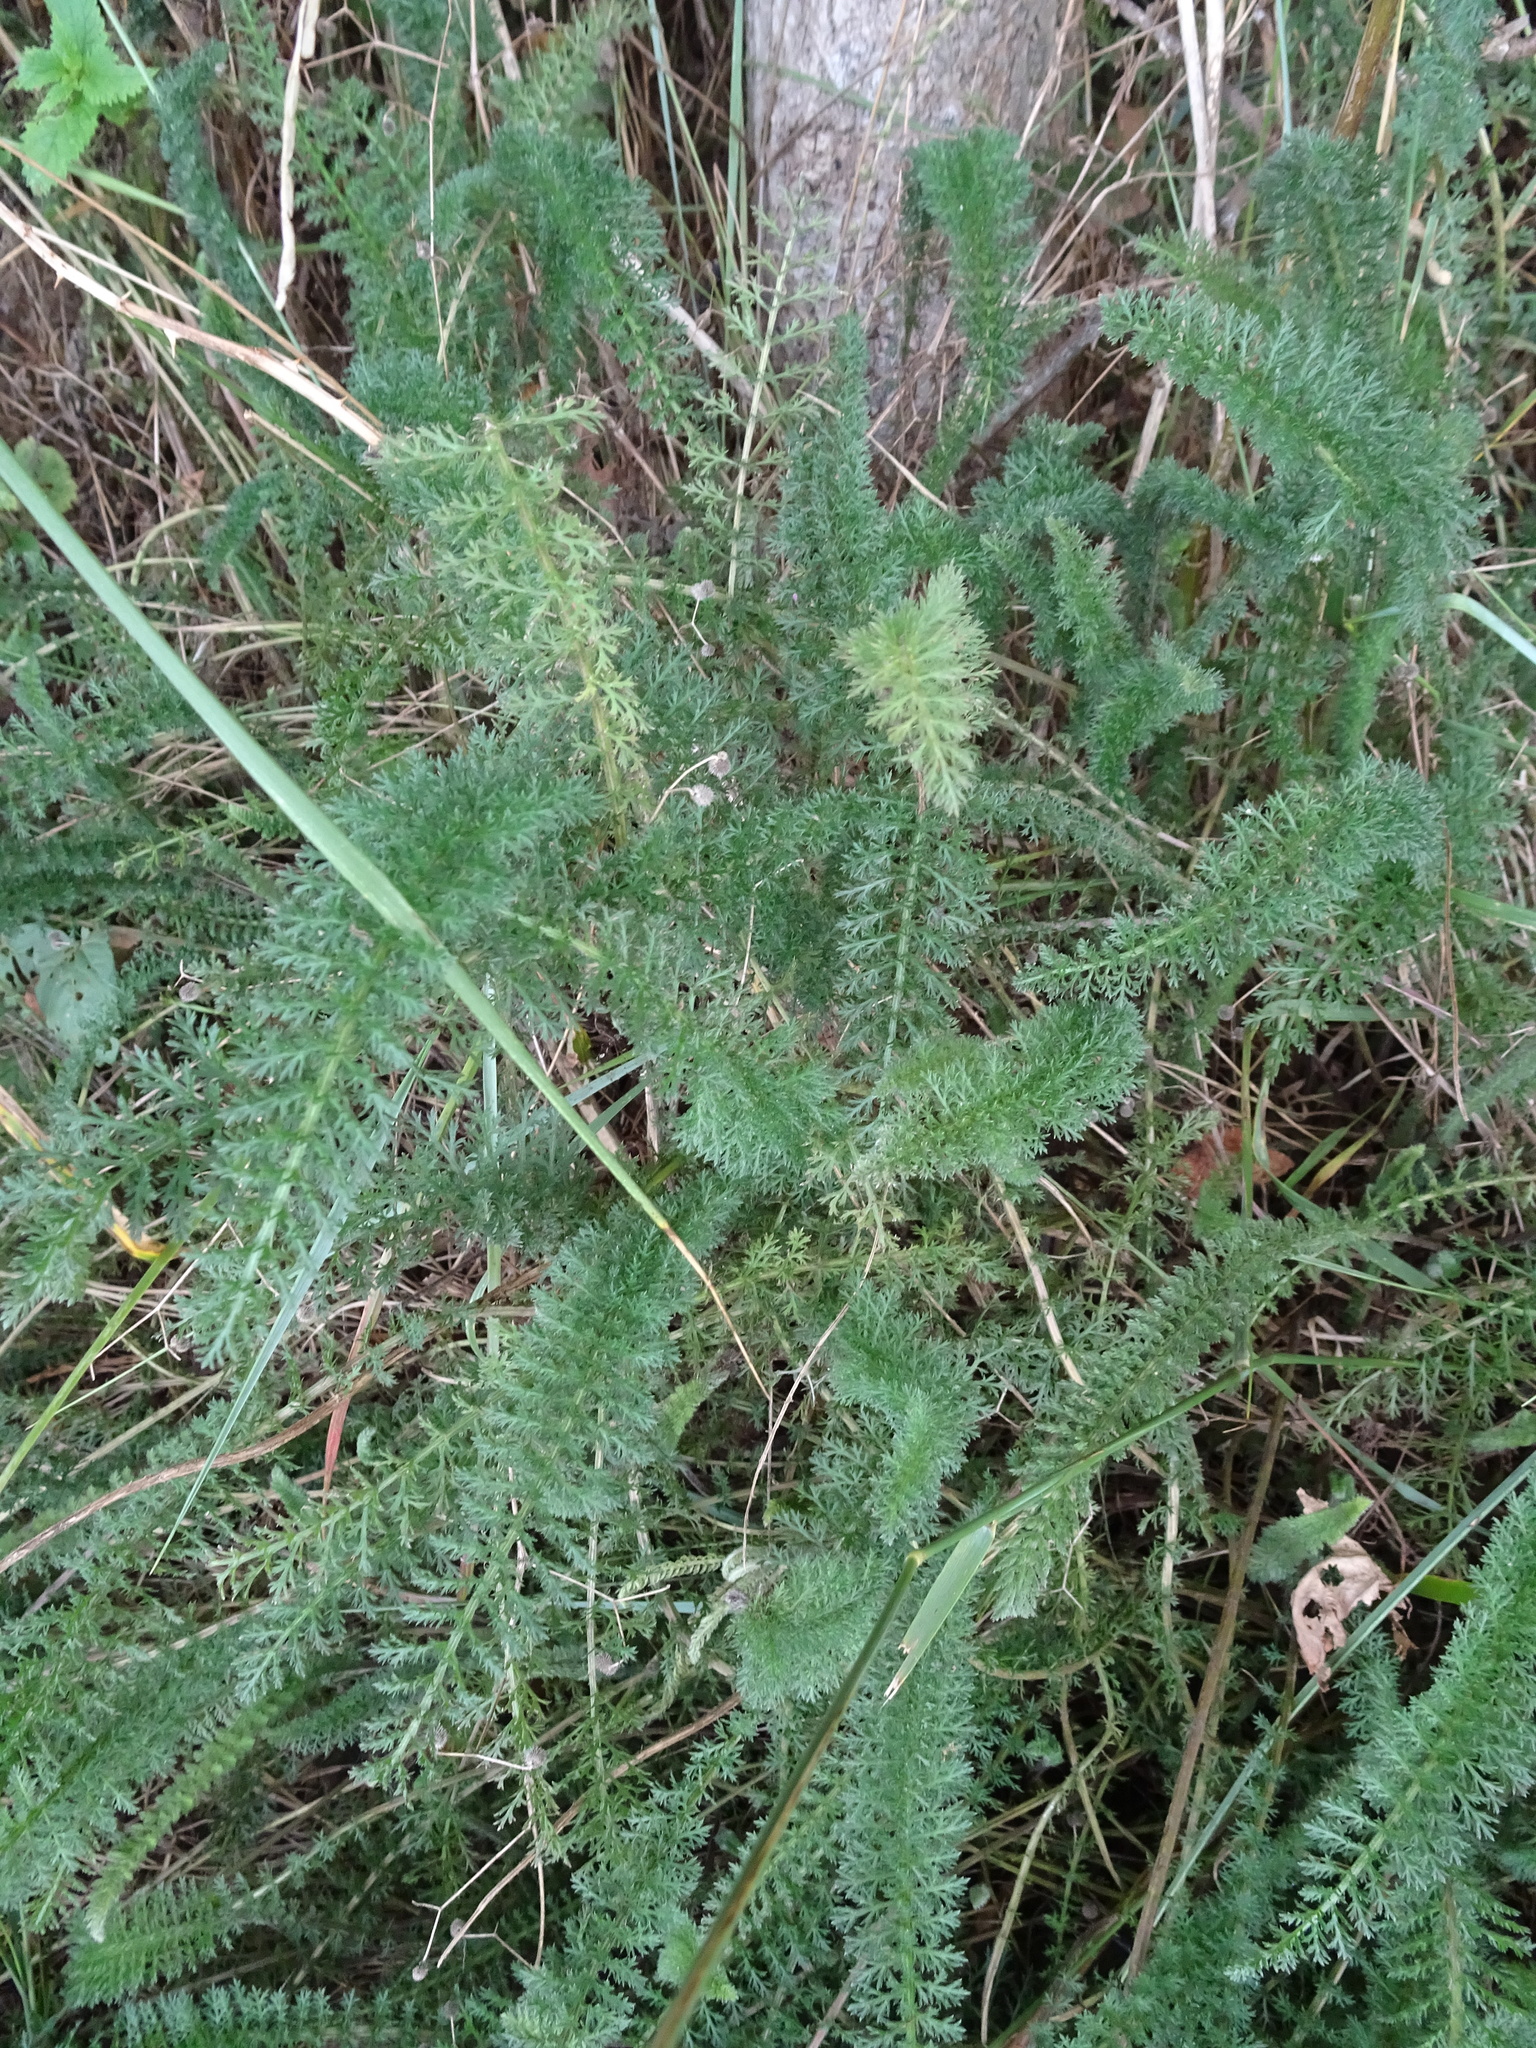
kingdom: Plantae
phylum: Tracheophyta
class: Magnoliopsida
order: Asterales
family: Asteraceae
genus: Achillea
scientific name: Achillea millefolium
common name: Yarrow
